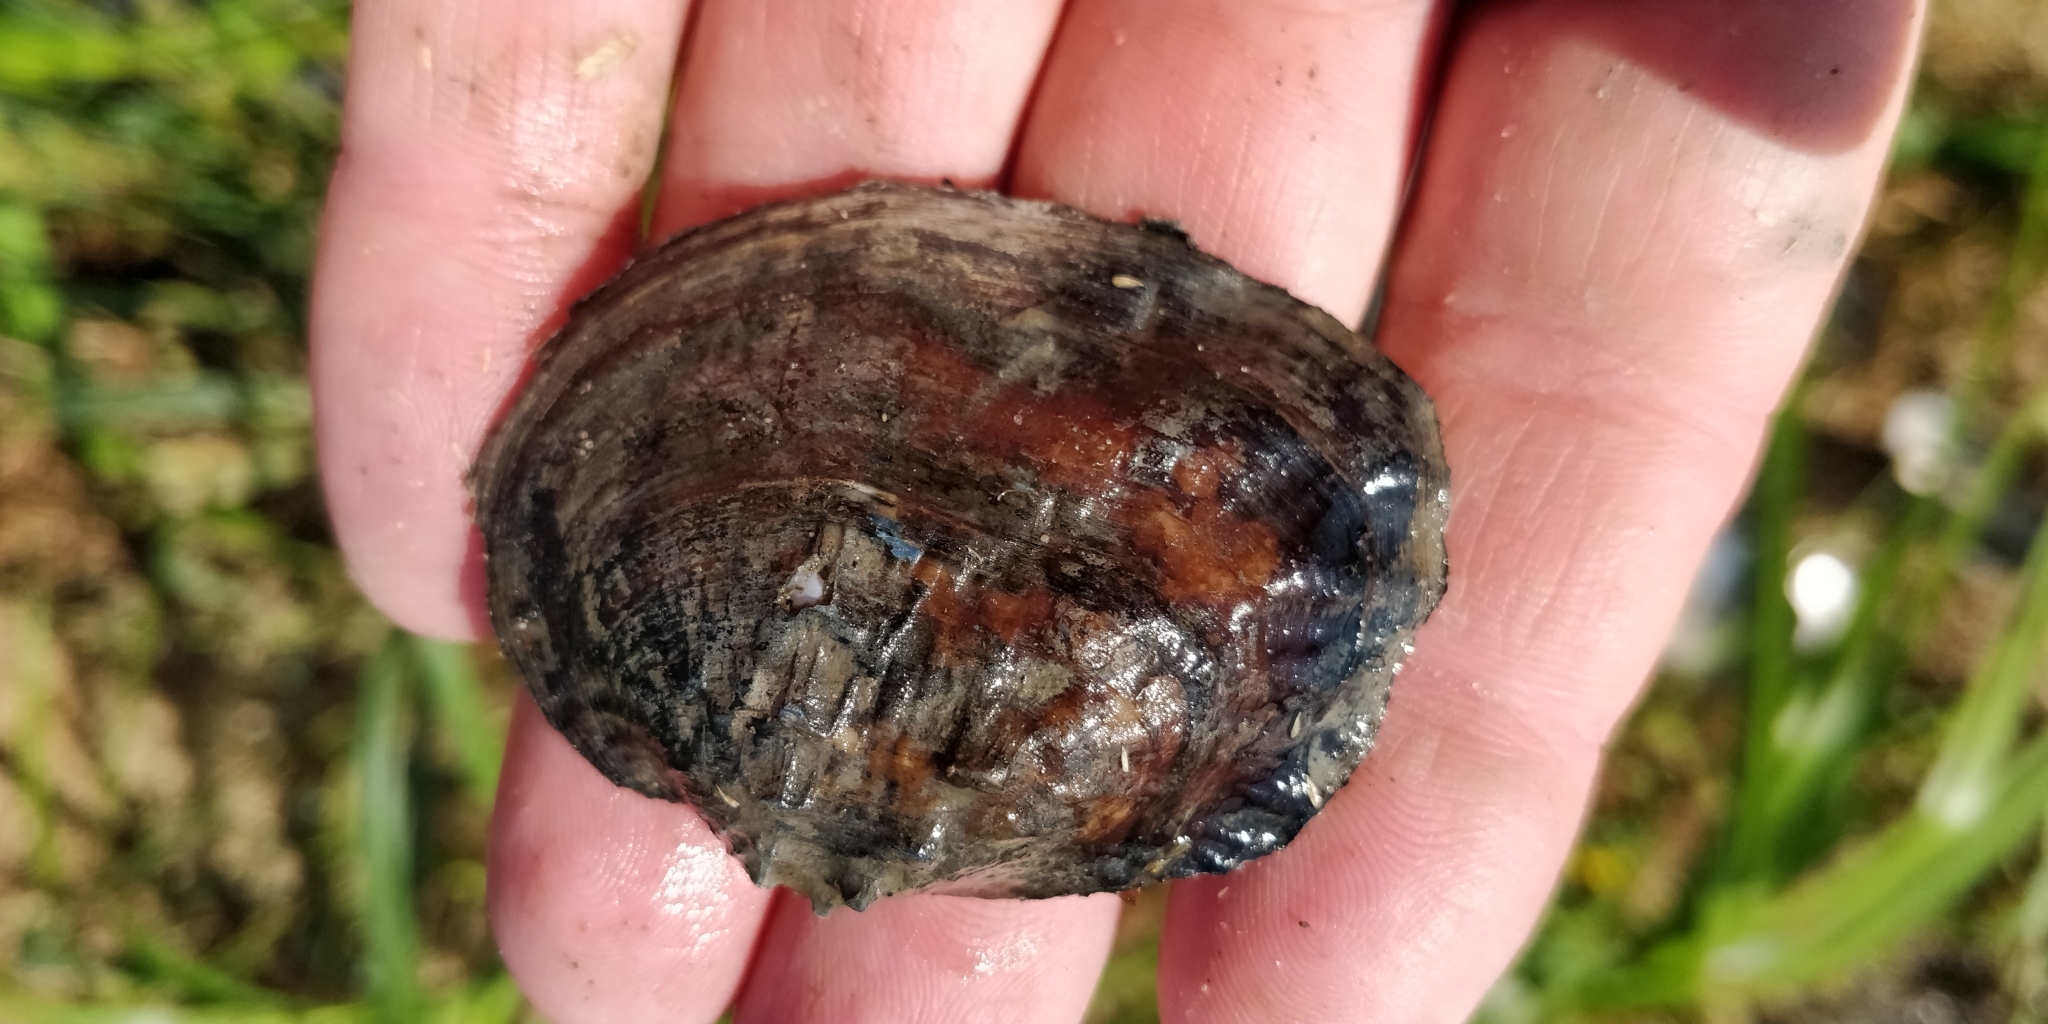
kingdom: Animalia
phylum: Mollusca
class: Bivalvia
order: Unionida
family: Unionidae
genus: Arcidens
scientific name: Arcidens confragosus
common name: Rock pocketbook
